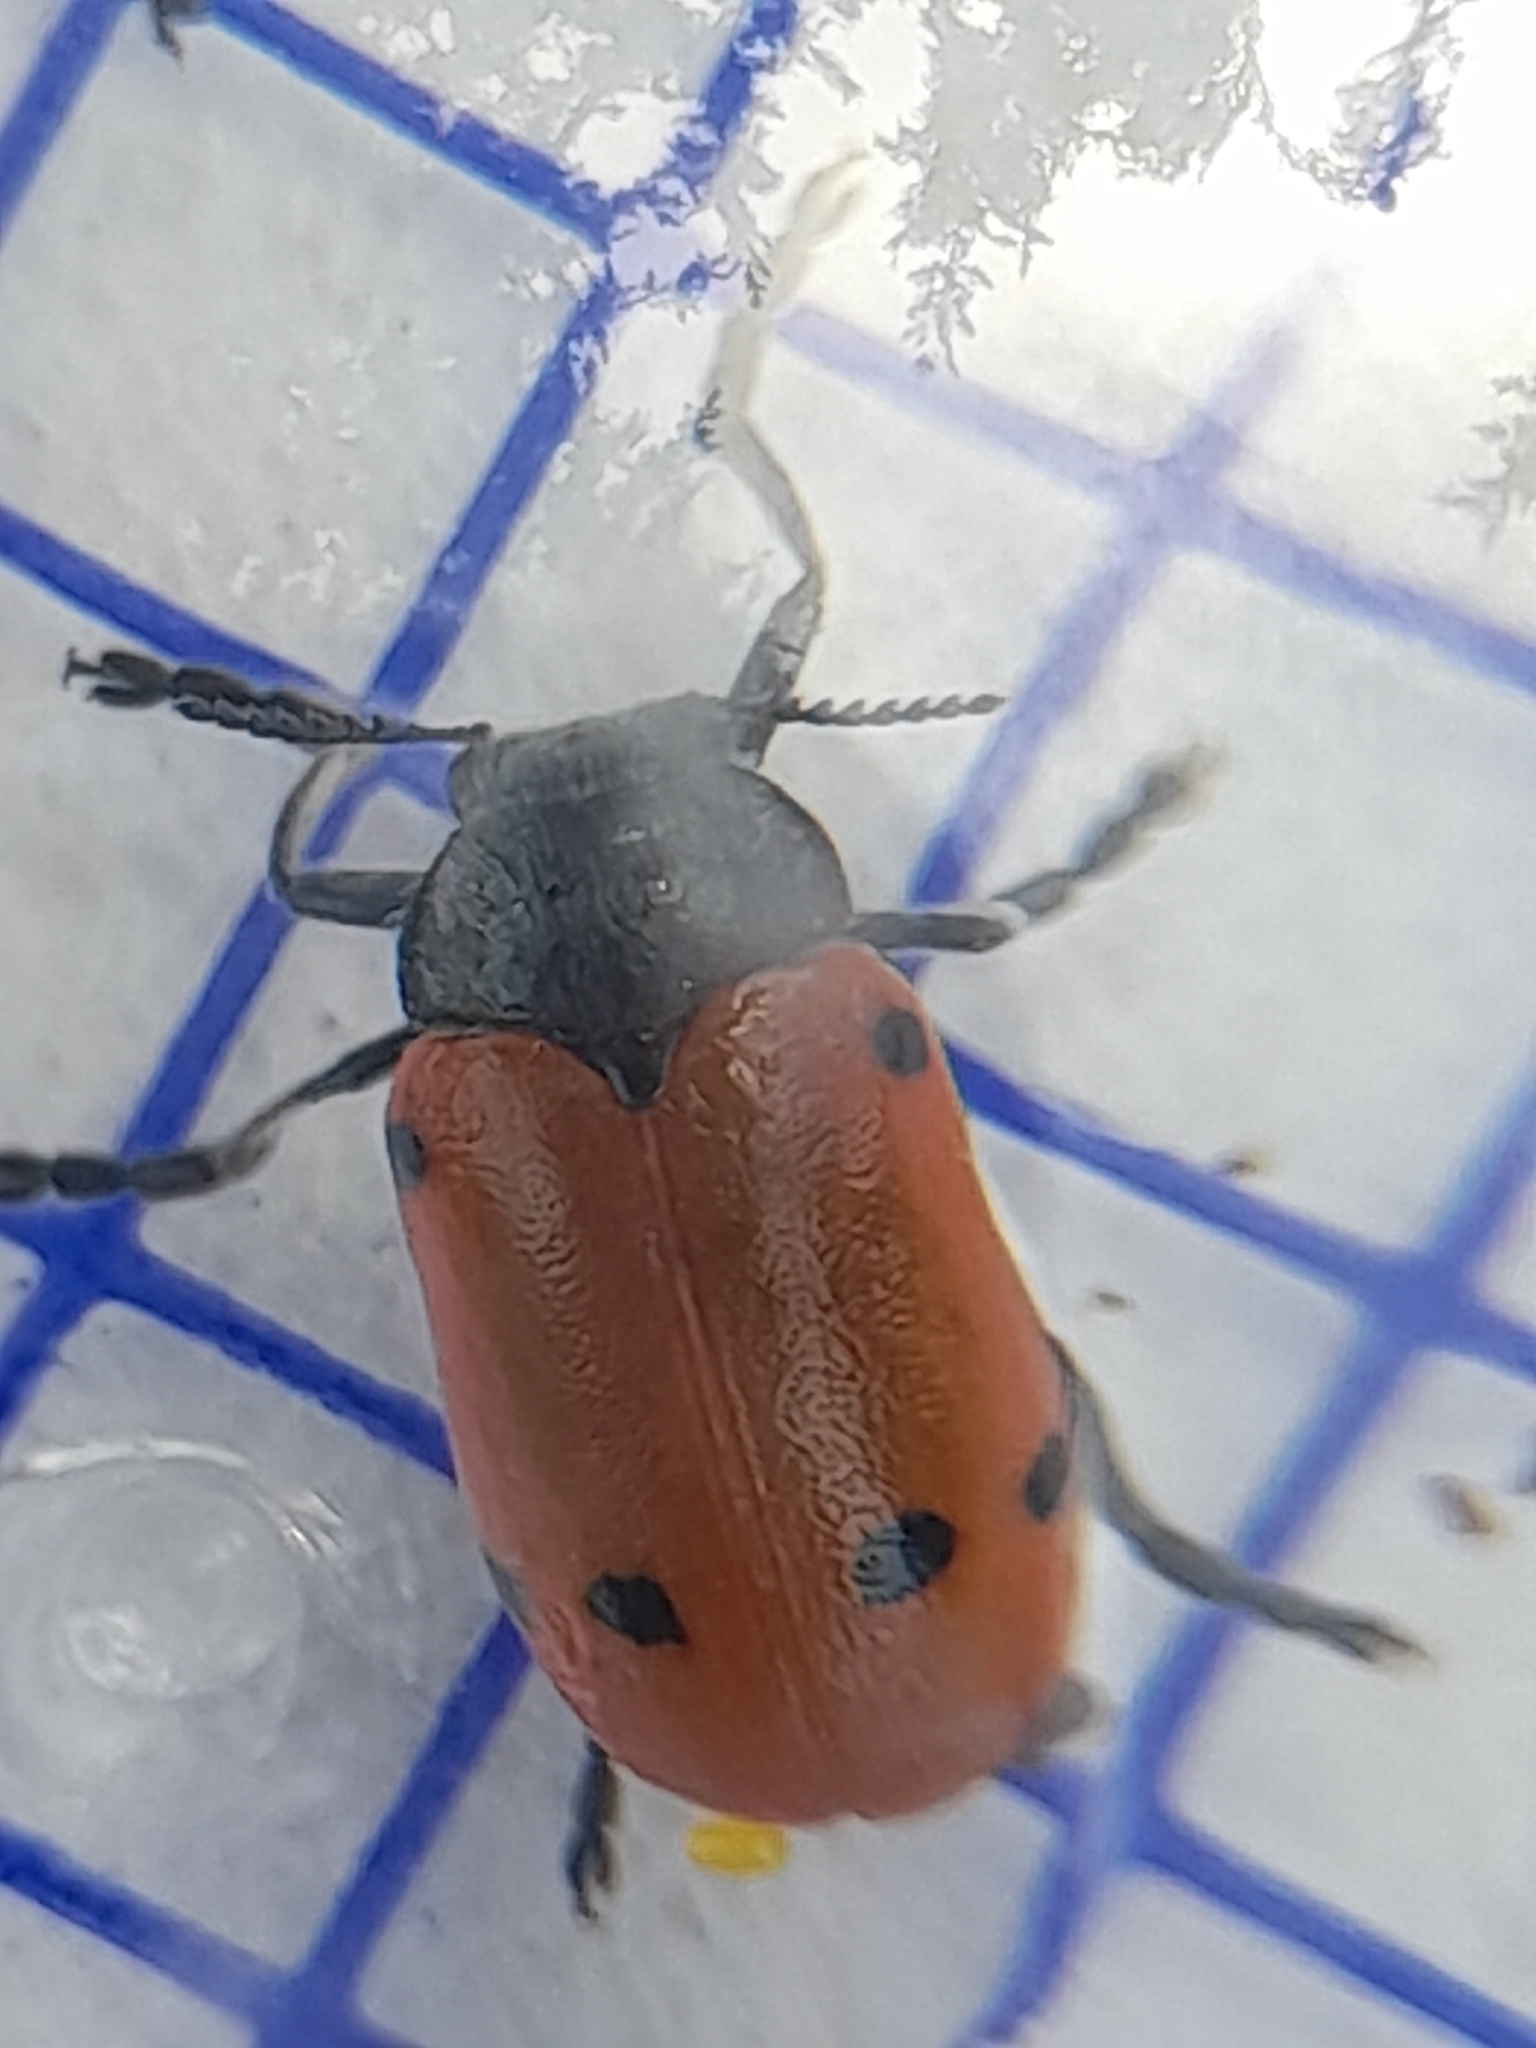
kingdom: Animalia
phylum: Arthropoda
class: Insecta
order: Coleoptera
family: Chrysomelidae
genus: Lachnaia
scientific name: Lachnaia pubescens
